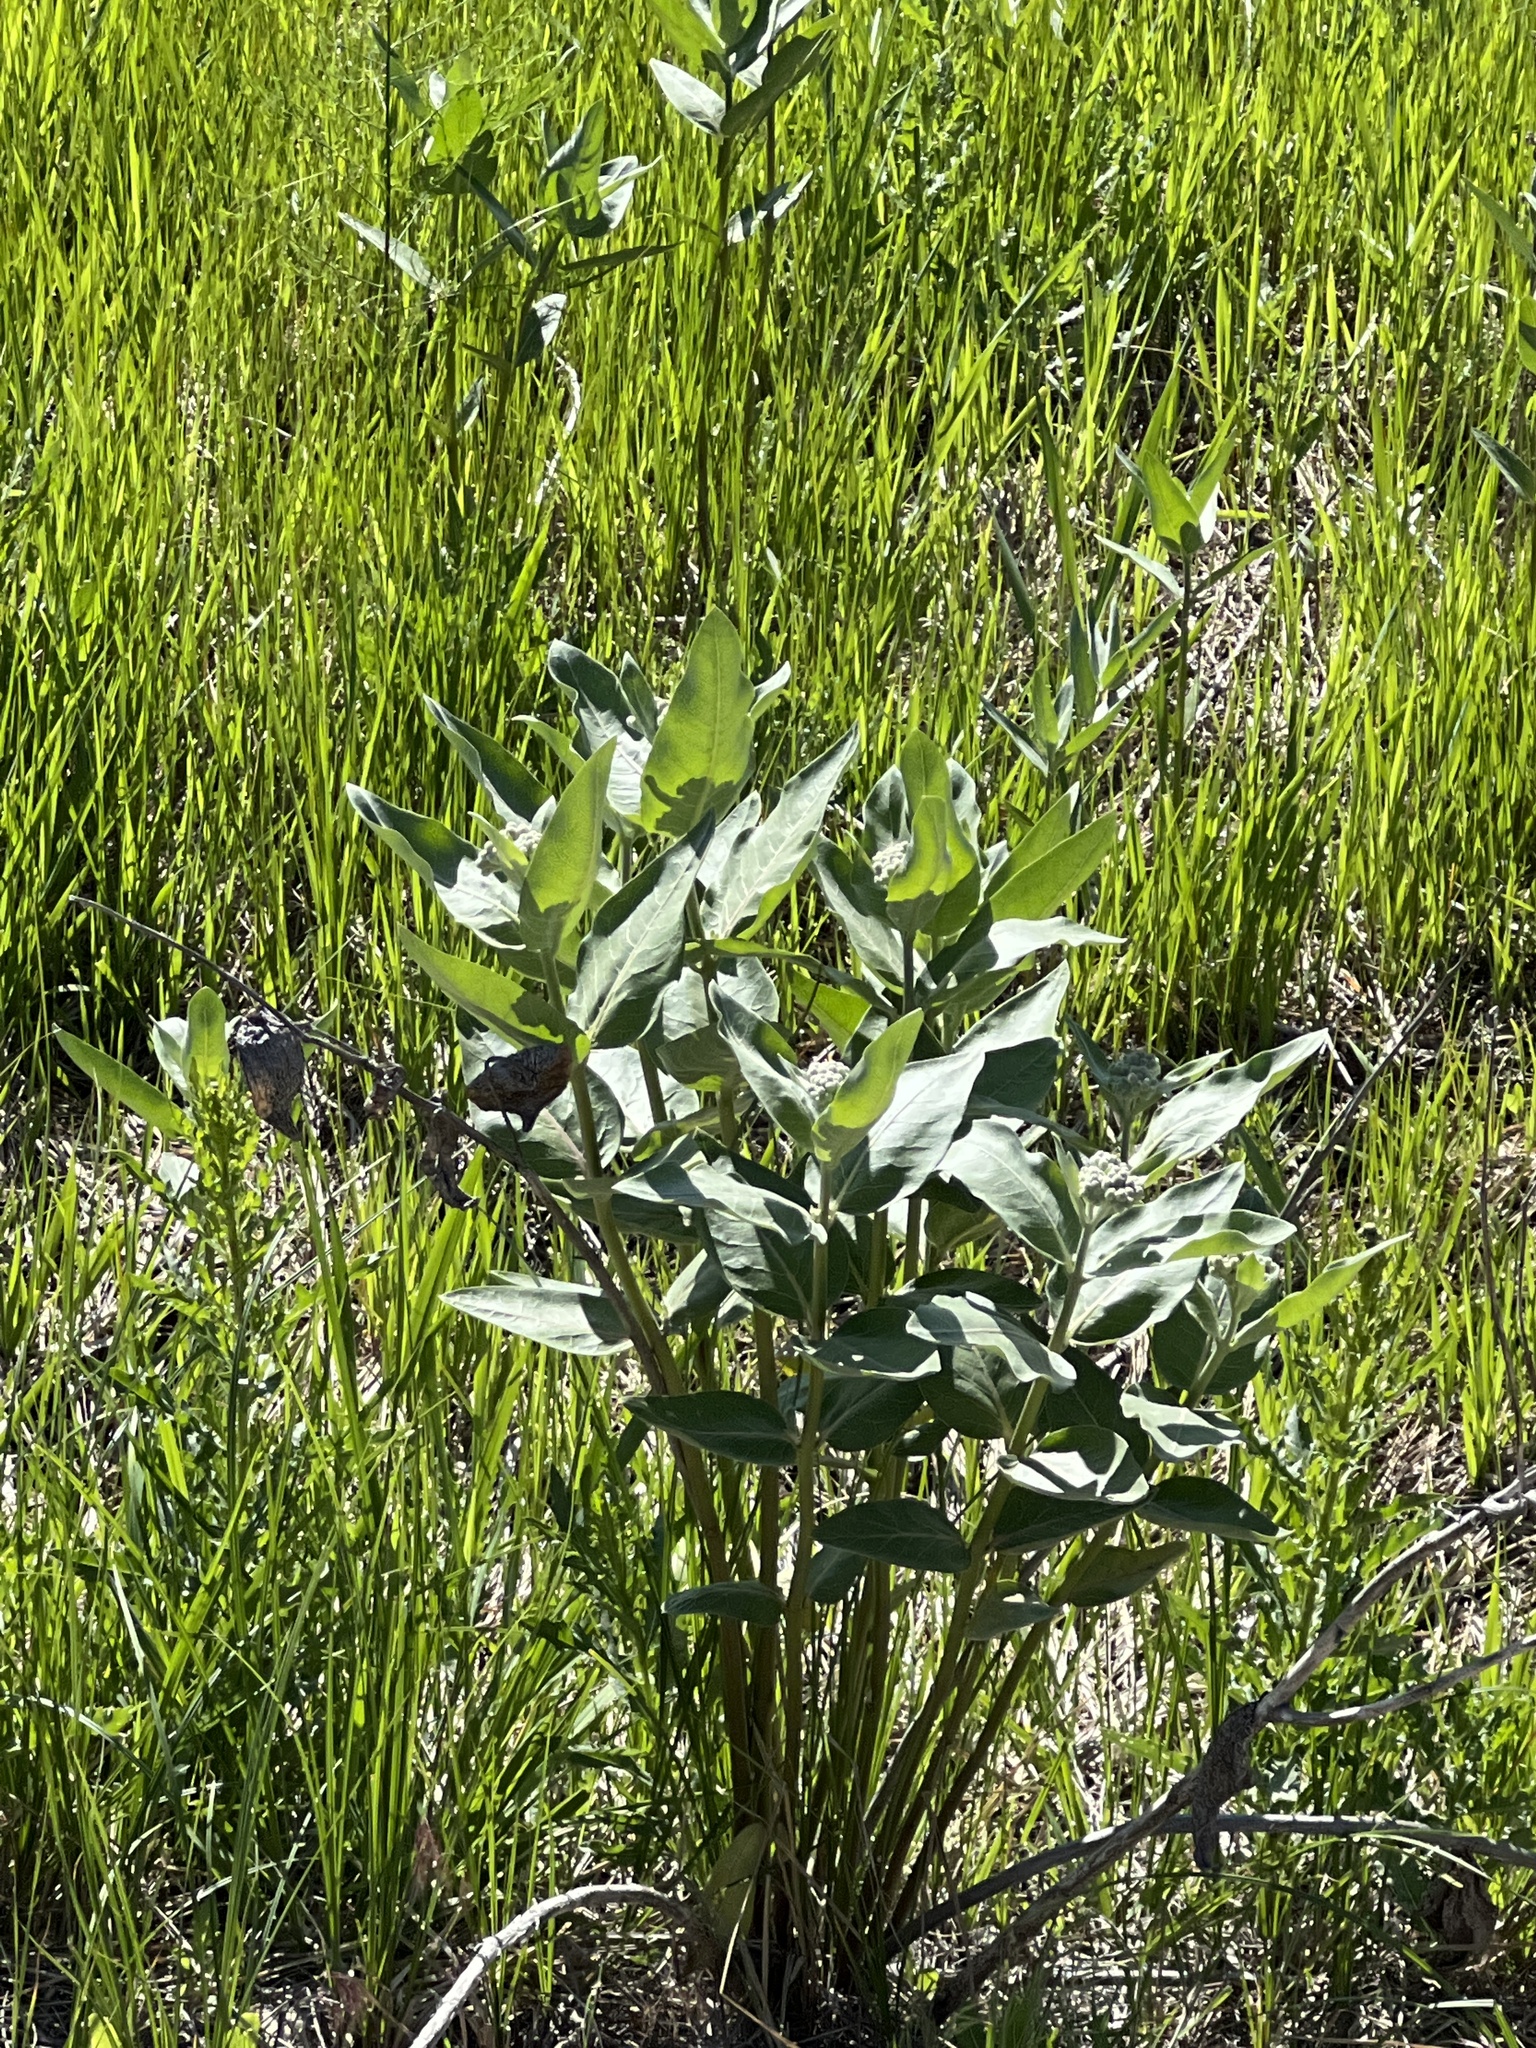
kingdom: Plantae
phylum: Tracheophyta
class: Magnoliopsida
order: Gentianales
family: Apocynaceae
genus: Asclepias
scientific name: Asclepias speciosa
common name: Showy milkweed
